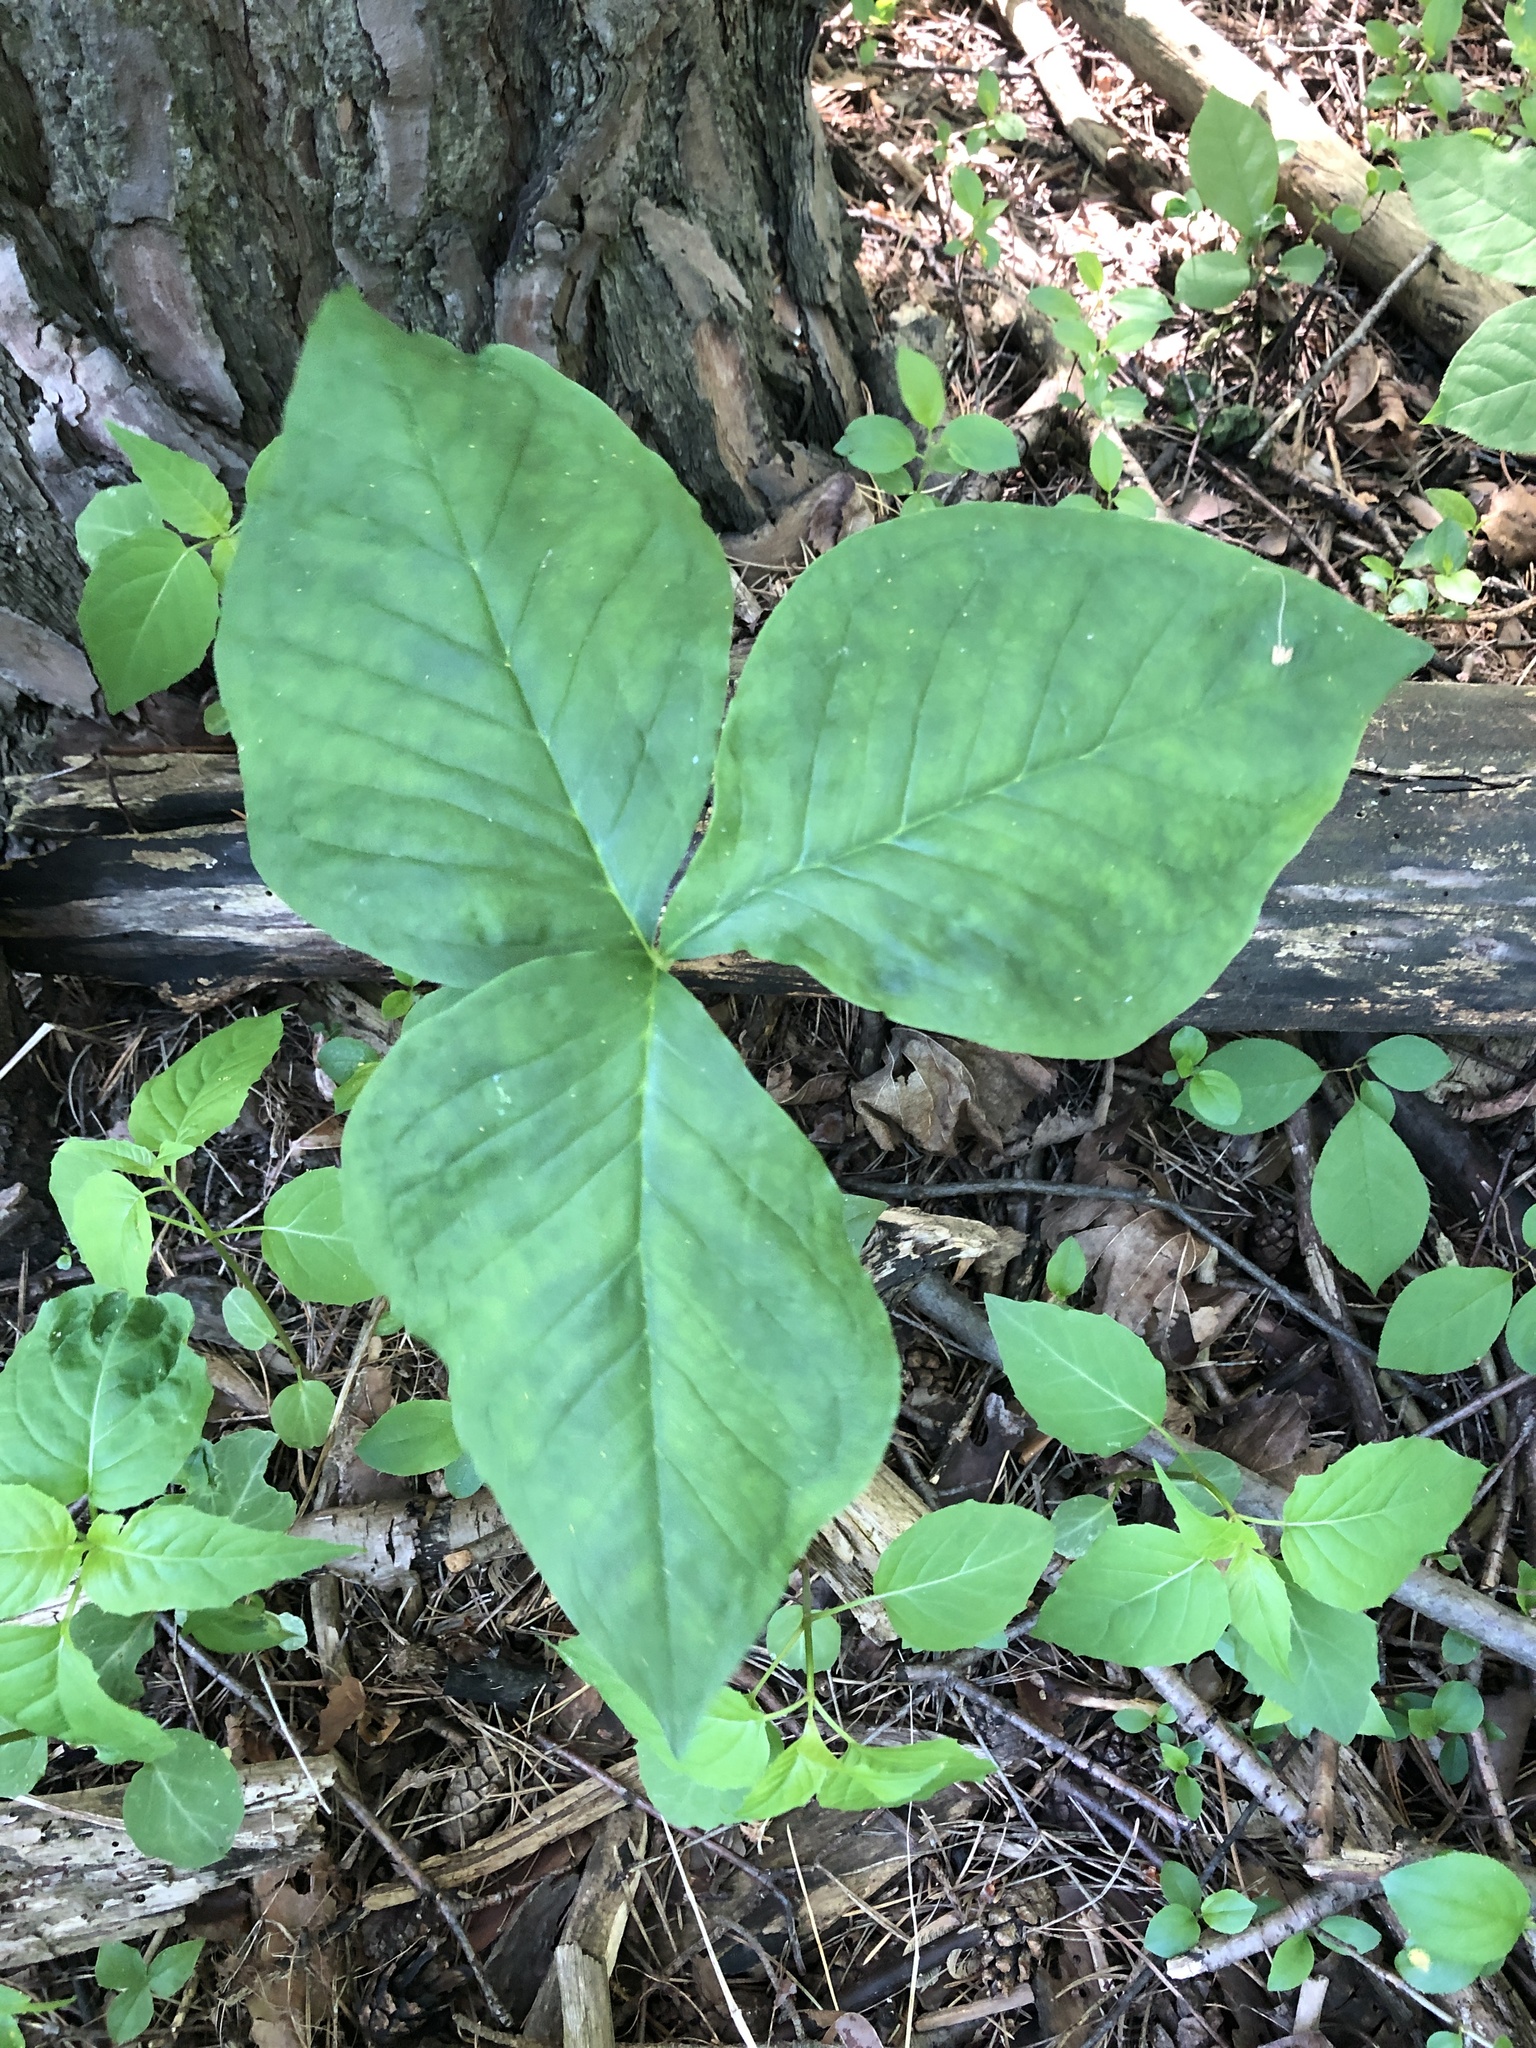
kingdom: Plantae
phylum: Tracheophyta
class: Liliopsida
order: Alismatales
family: Araceae
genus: Arisaema
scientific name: Arisaema triphyllum
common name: Jack-in-the-pulpit
